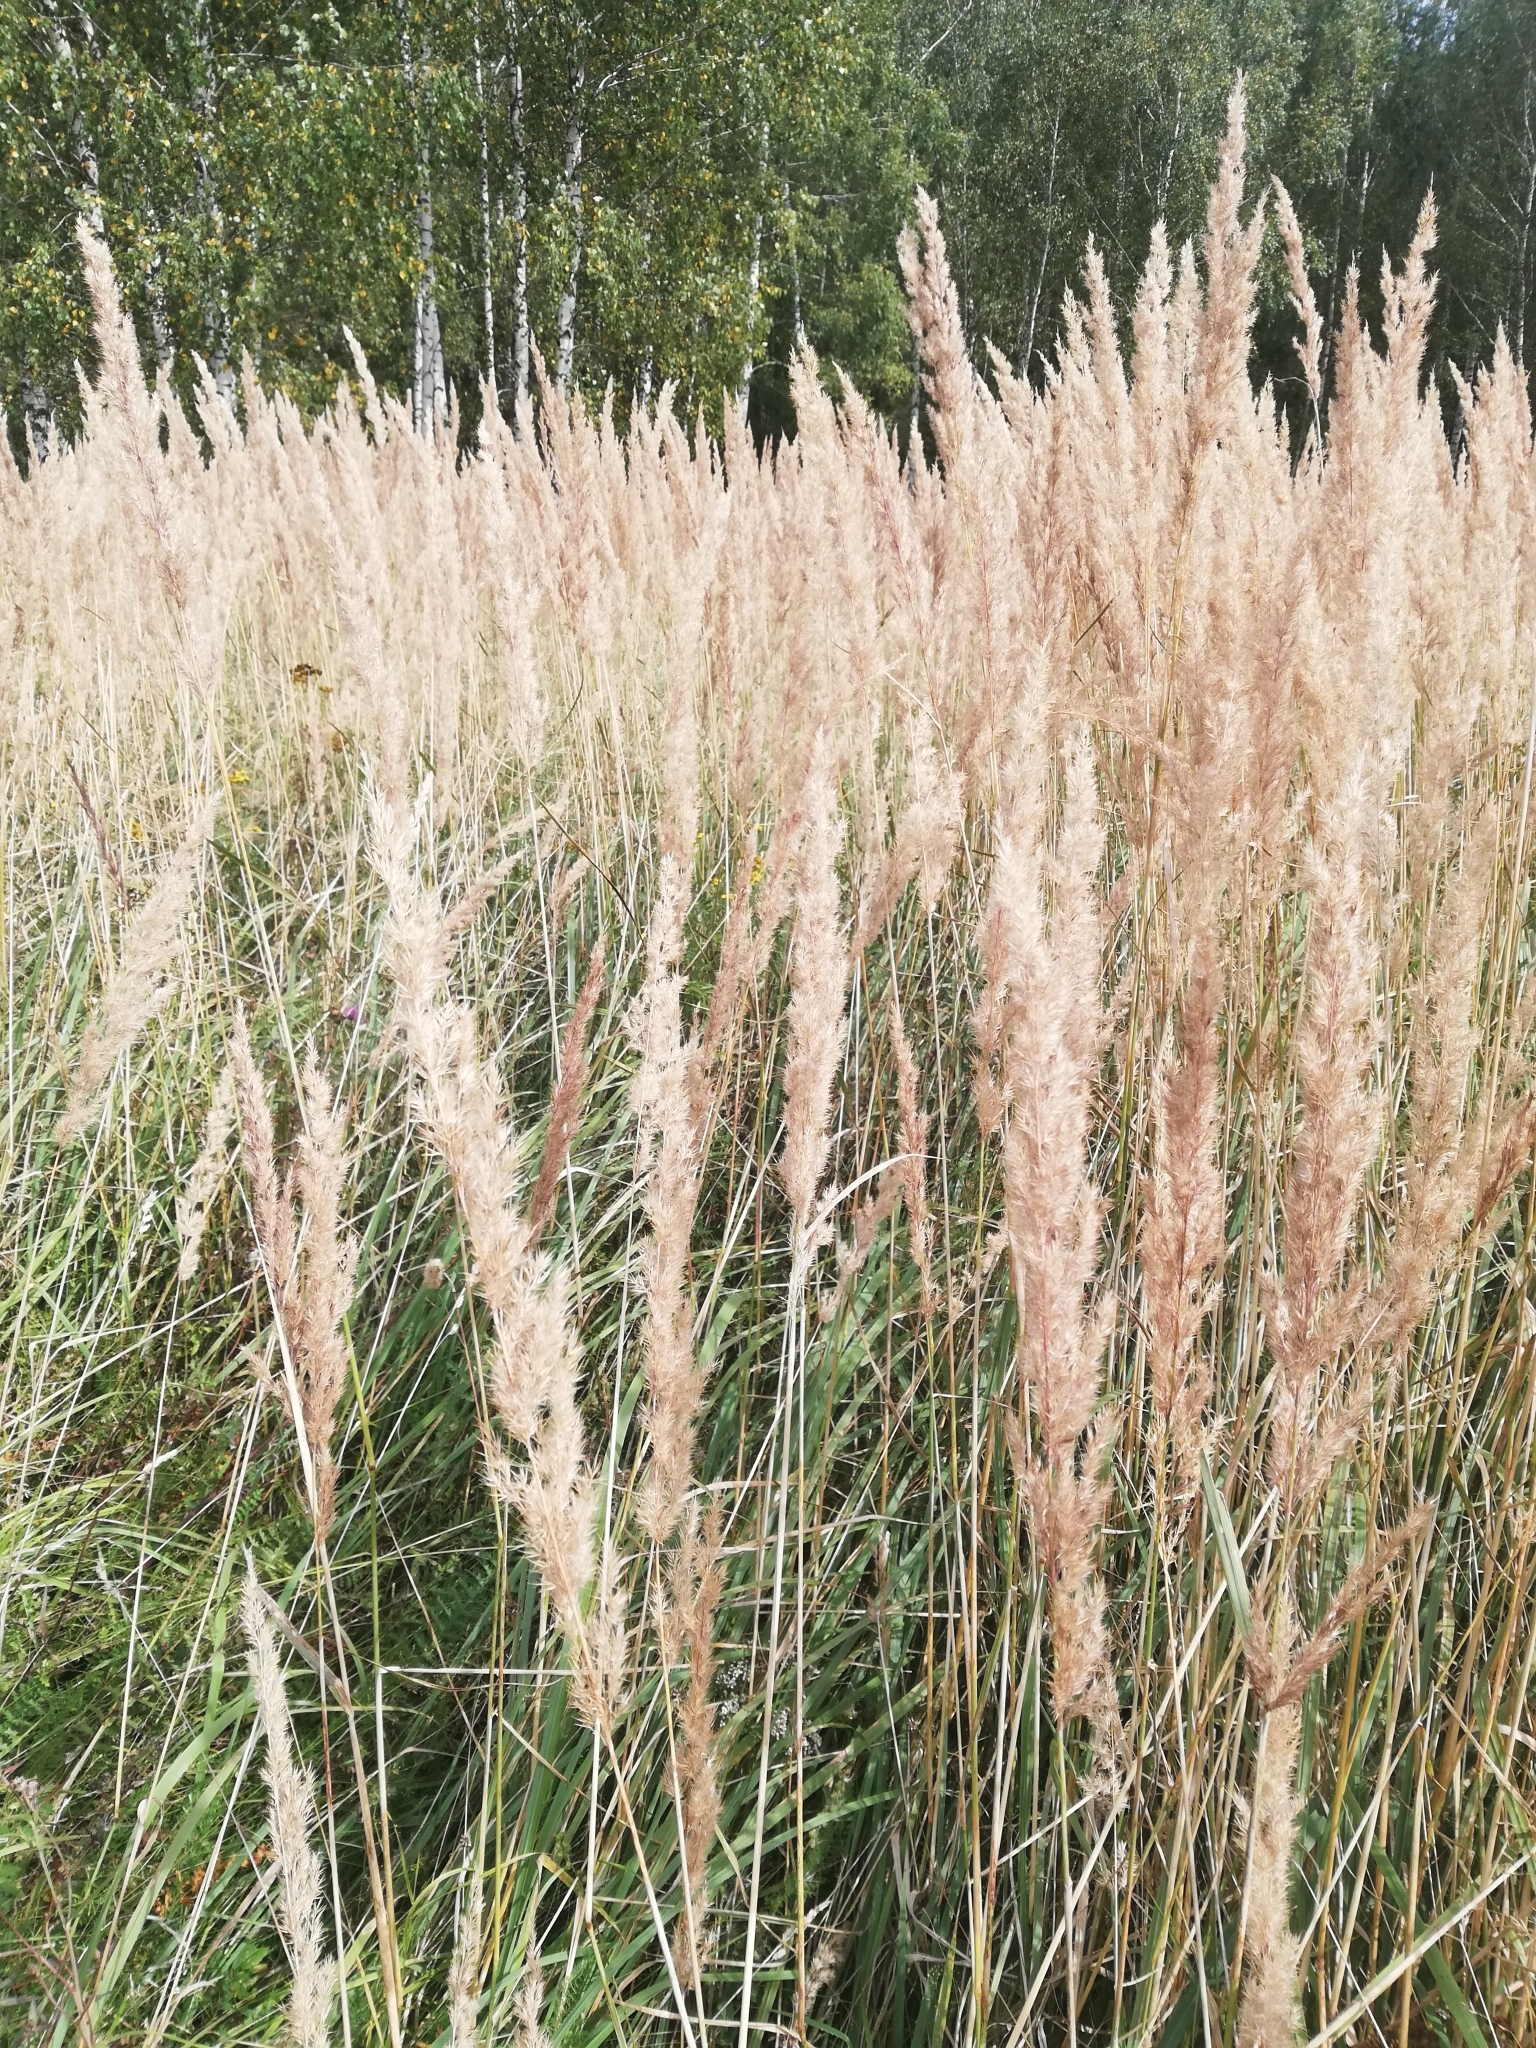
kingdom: Plantae
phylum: Tracheophyta
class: Liliopsida
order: Poales
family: Poaceae
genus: Calamagrostis
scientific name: Calamagrostis epigejos
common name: Wood small-reed
